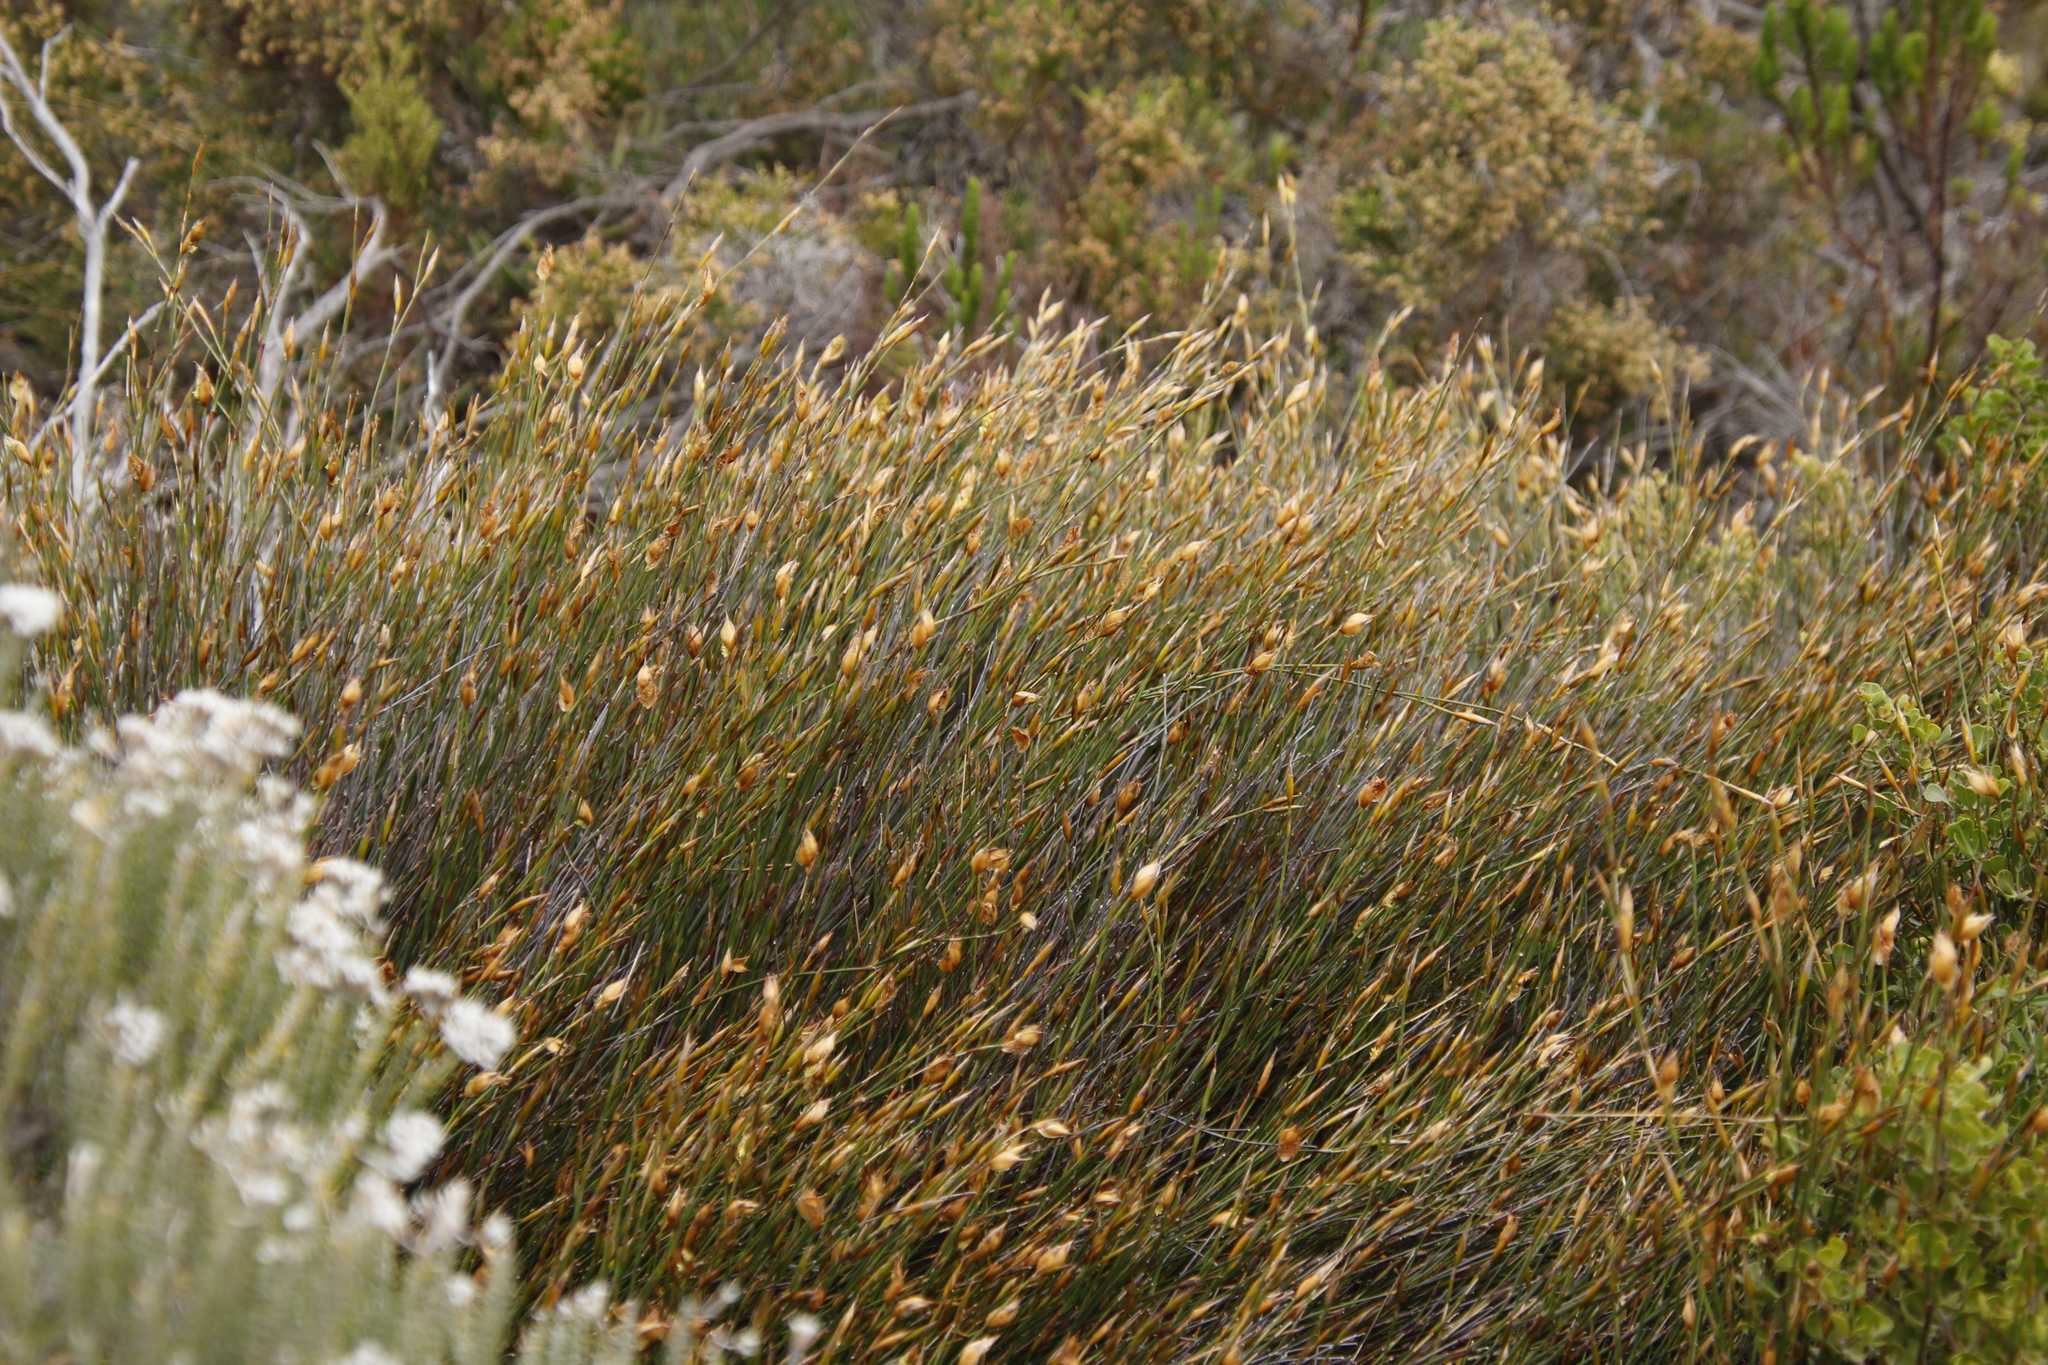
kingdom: Plantae
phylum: Tracheophyta
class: Liliopsida
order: Poales
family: Restionaceae
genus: Willdenowia
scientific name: Willdenowia teres
